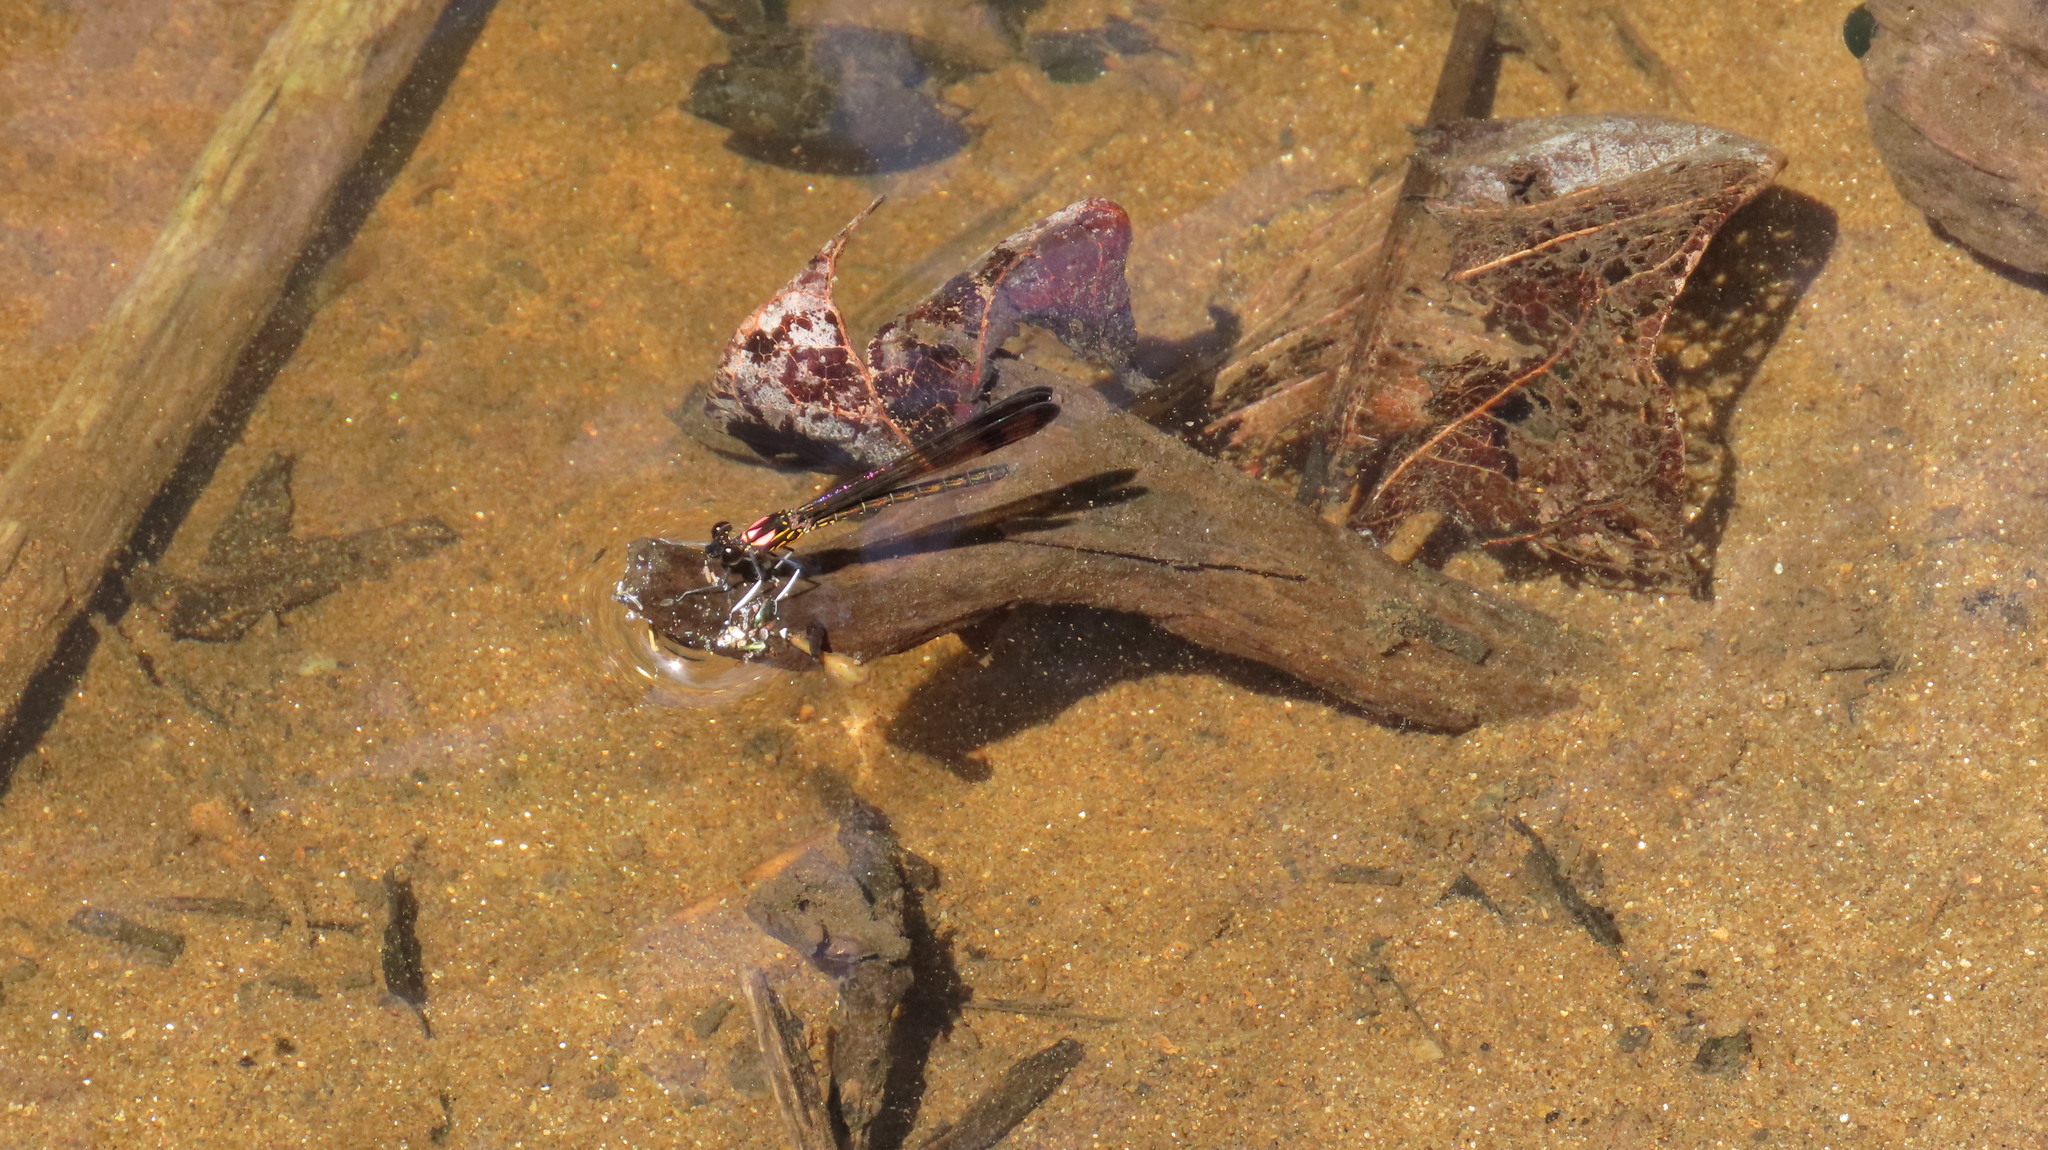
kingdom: Animalia
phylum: Arthropoda
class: Insecta
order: Odonata
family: Chlorocyphidae
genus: Heliocypha
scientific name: Heliocypha bisignata
